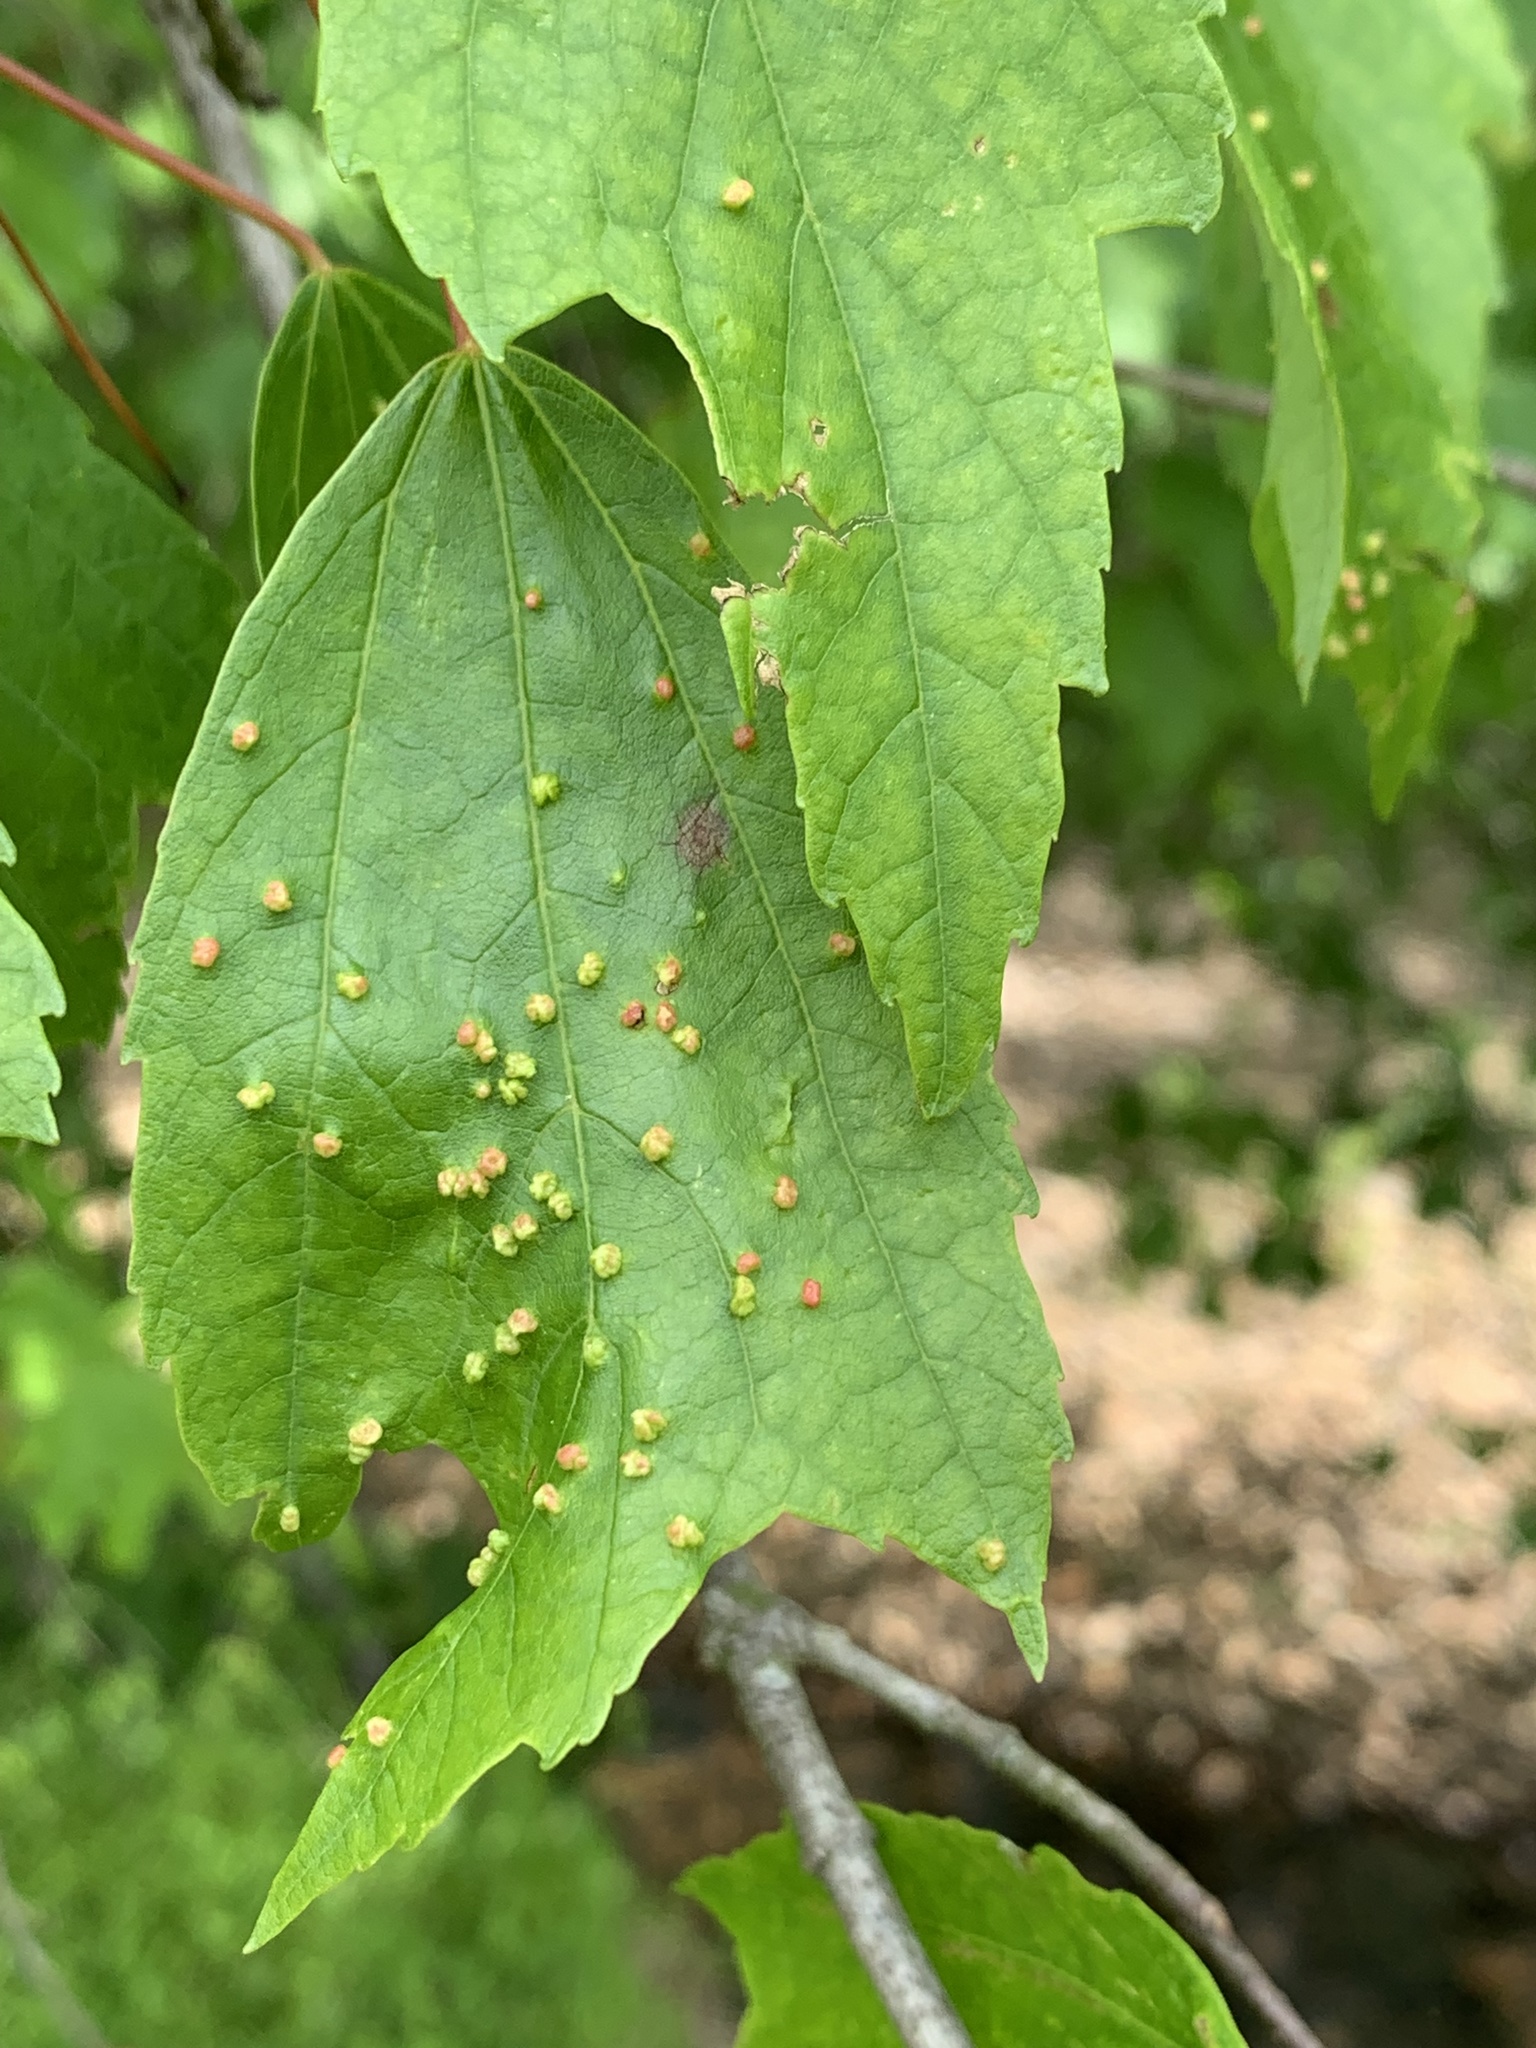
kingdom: Animalia
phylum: Arthropoda
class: Arachnida
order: Trombidiformes
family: Eriophyidae
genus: Vasates
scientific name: Vasates quadripedes
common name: Maple bladder gall mite
